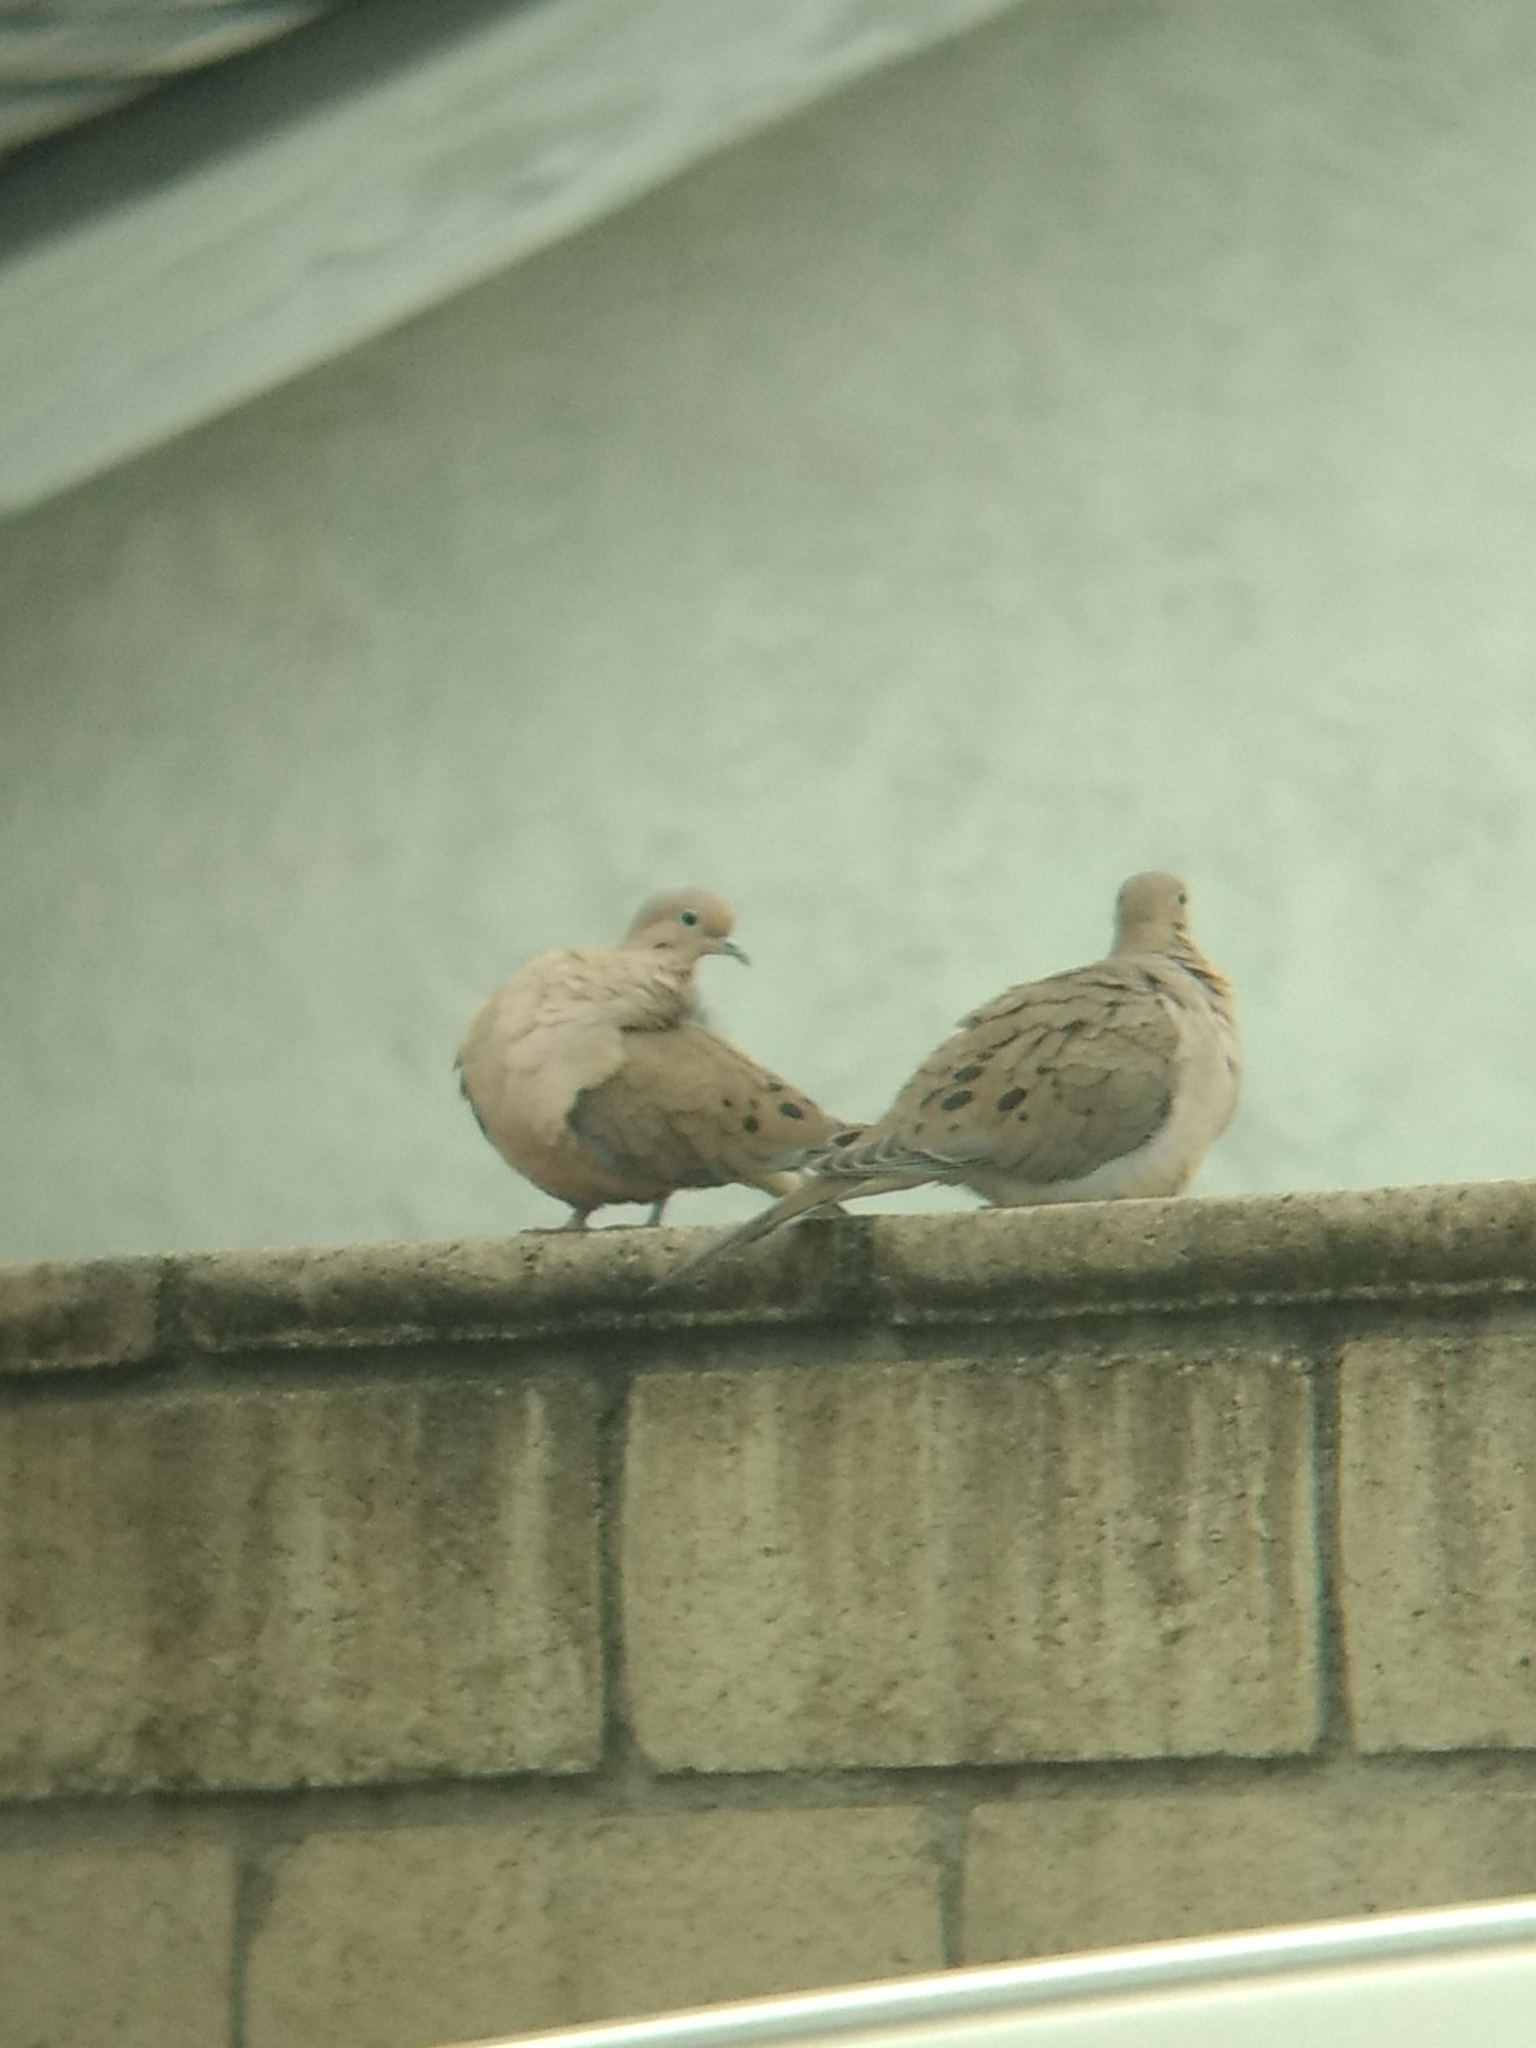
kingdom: Animalia
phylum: Chordata
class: Aves
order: Columbiformes
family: Columbidae
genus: Zenaida
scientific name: Zenaida macroura
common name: Mourning dove
